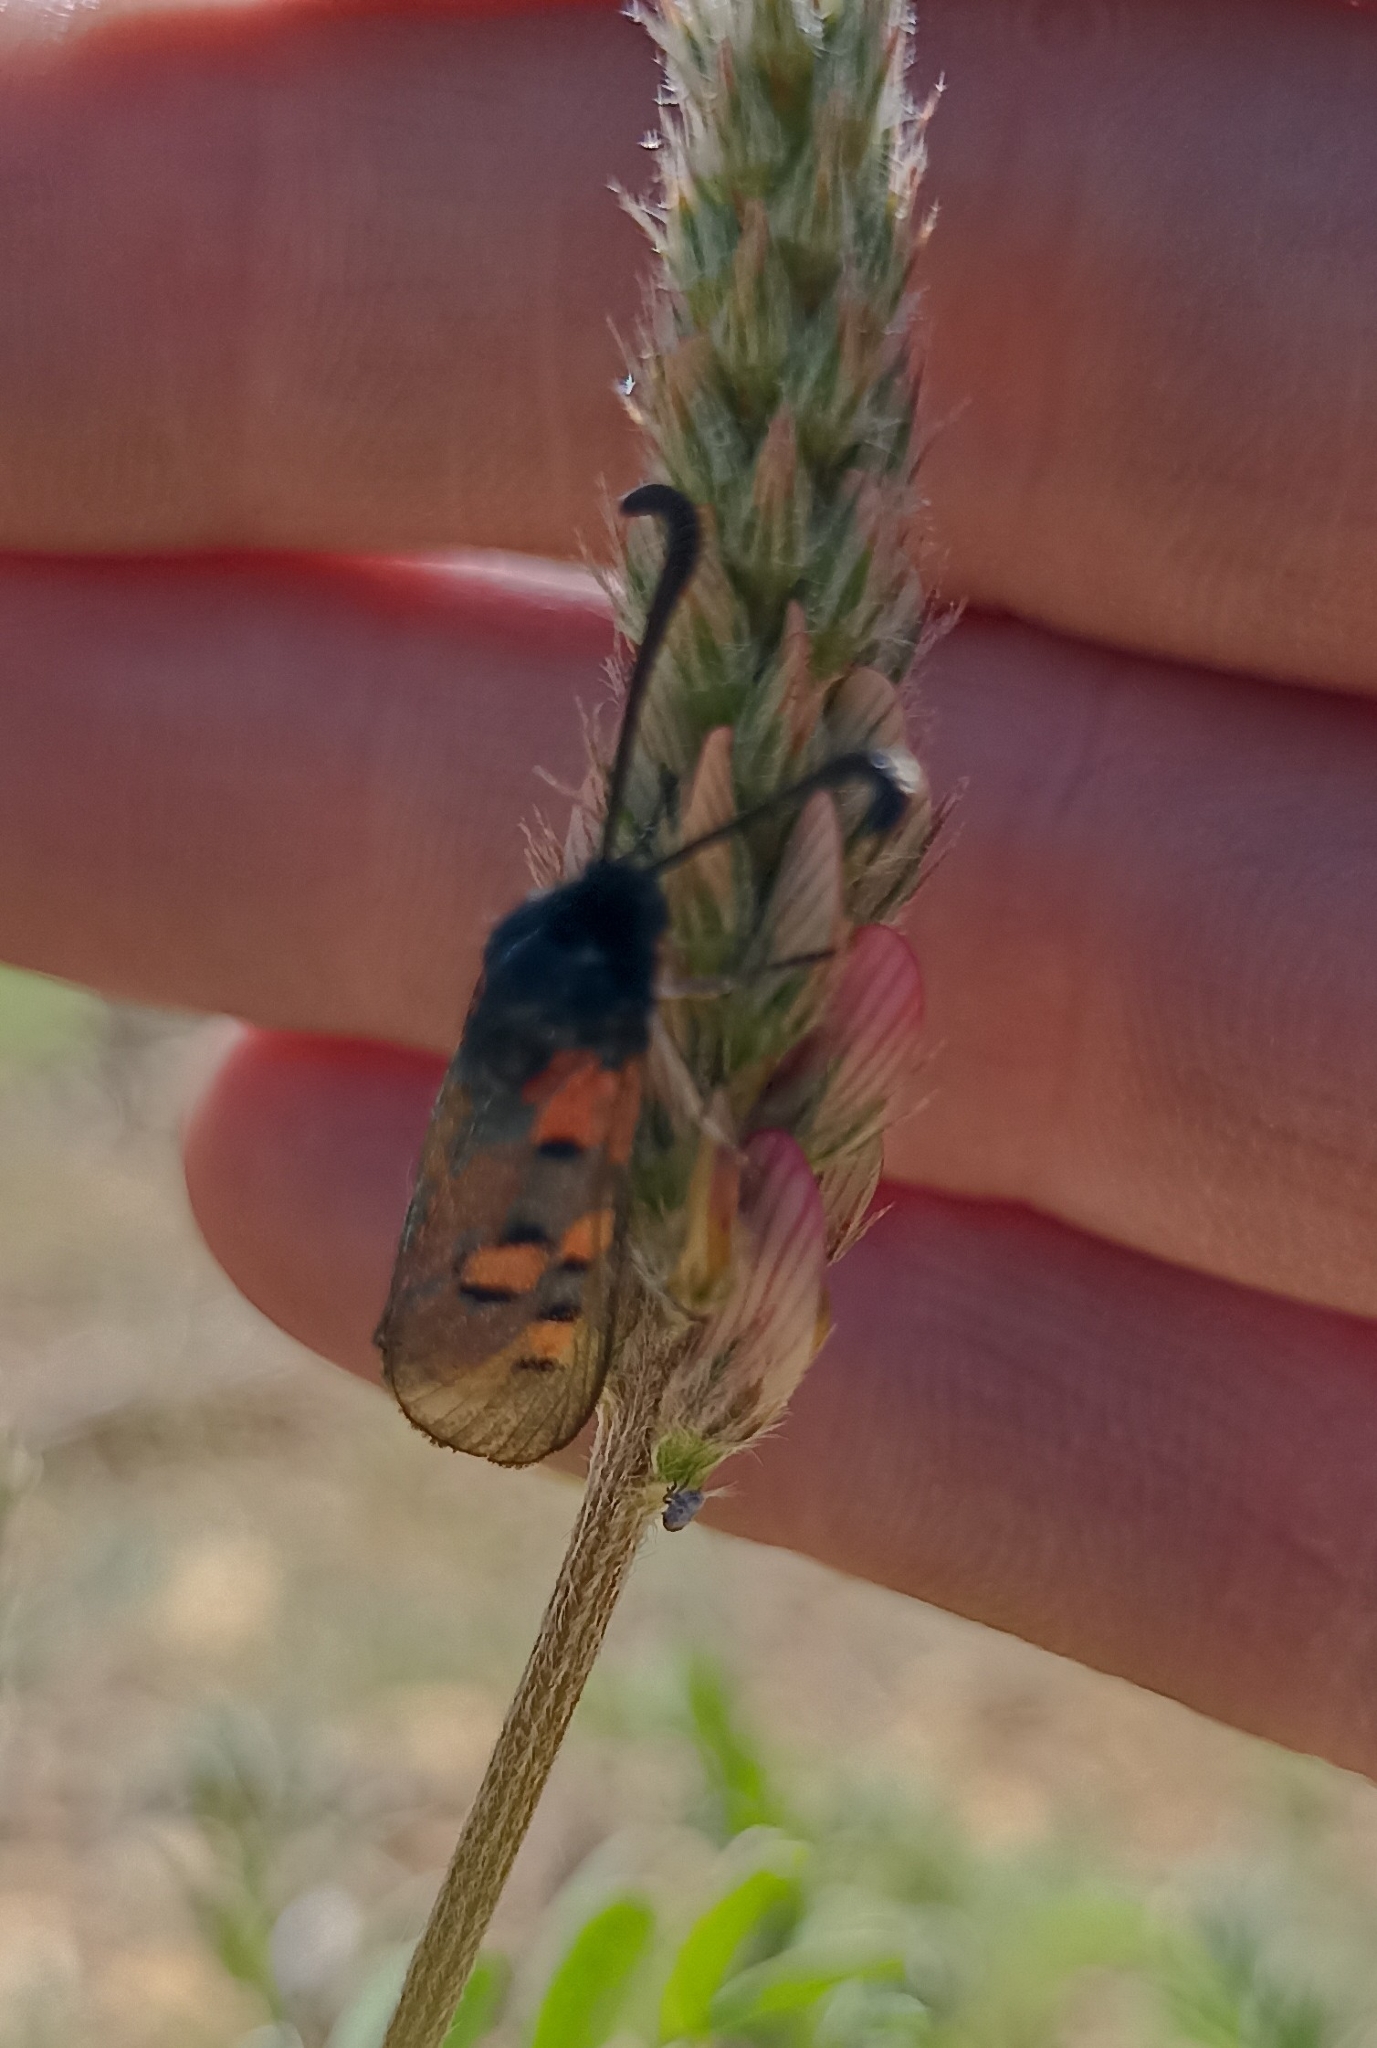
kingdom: Animalia
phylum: Arthropoda
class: Insecta
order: Lepidoptera
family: Zygaenidae
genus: Zygaena
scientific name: Zygaena rhadamanthus
